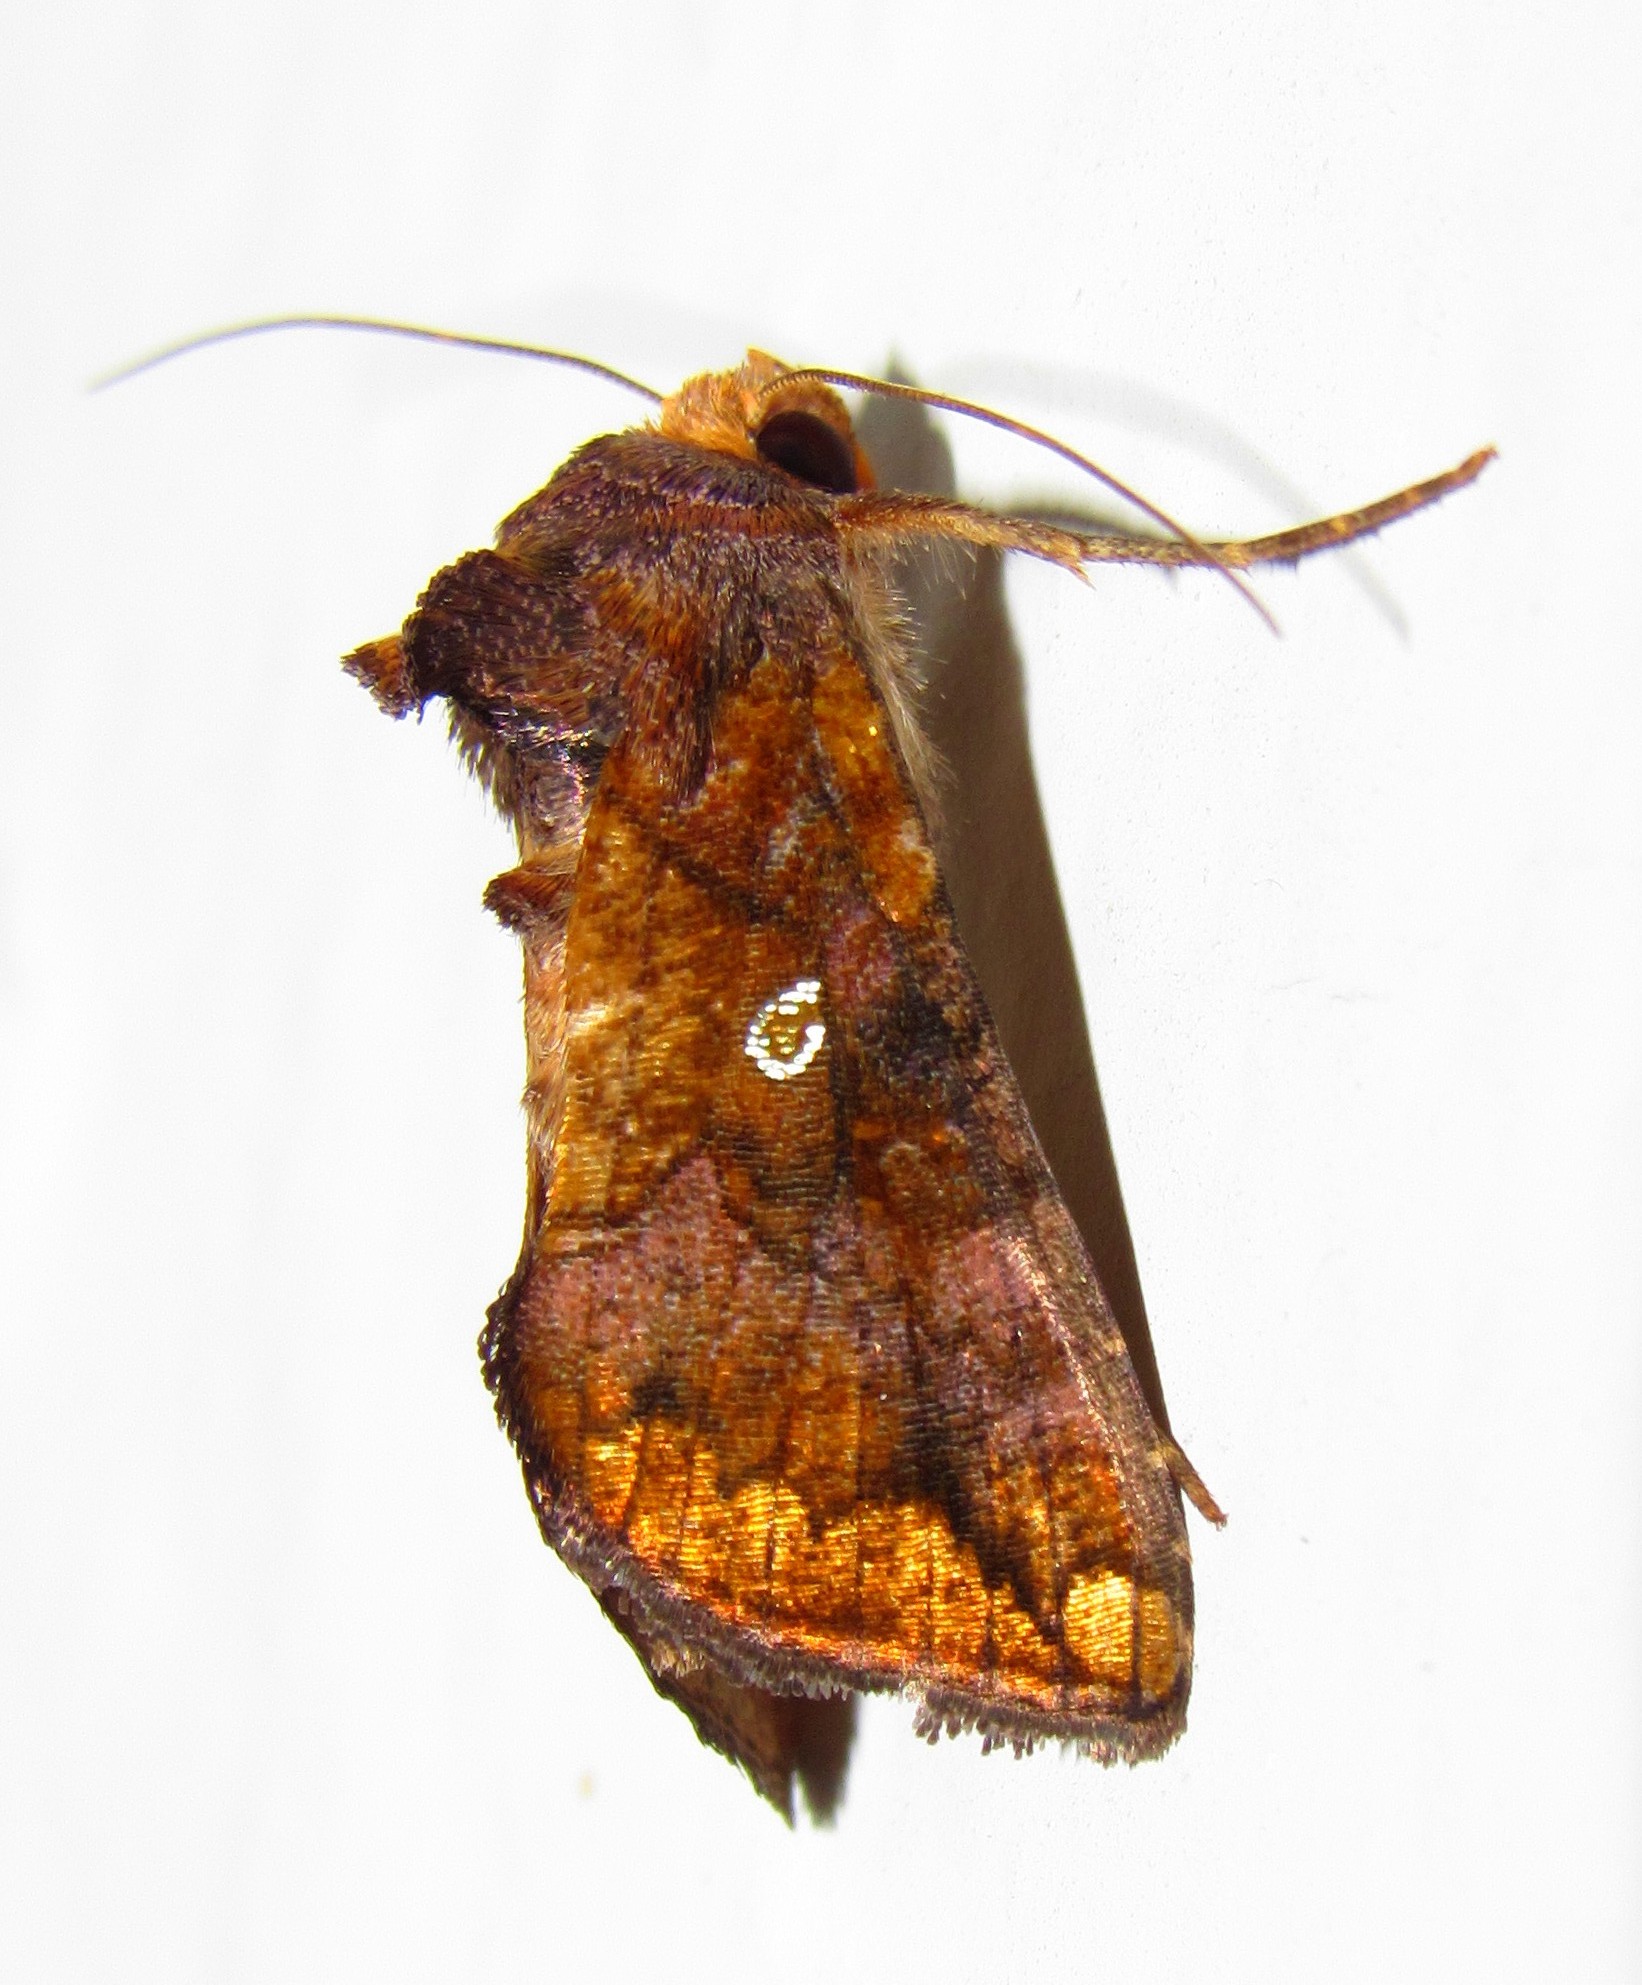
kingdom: Animalia
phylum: Arthropoda
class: Insecta
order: Lepidoptera
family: Noctuidae
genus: Argyrogramma
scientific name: Argyrogramma verruca
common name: Golden looper moth
